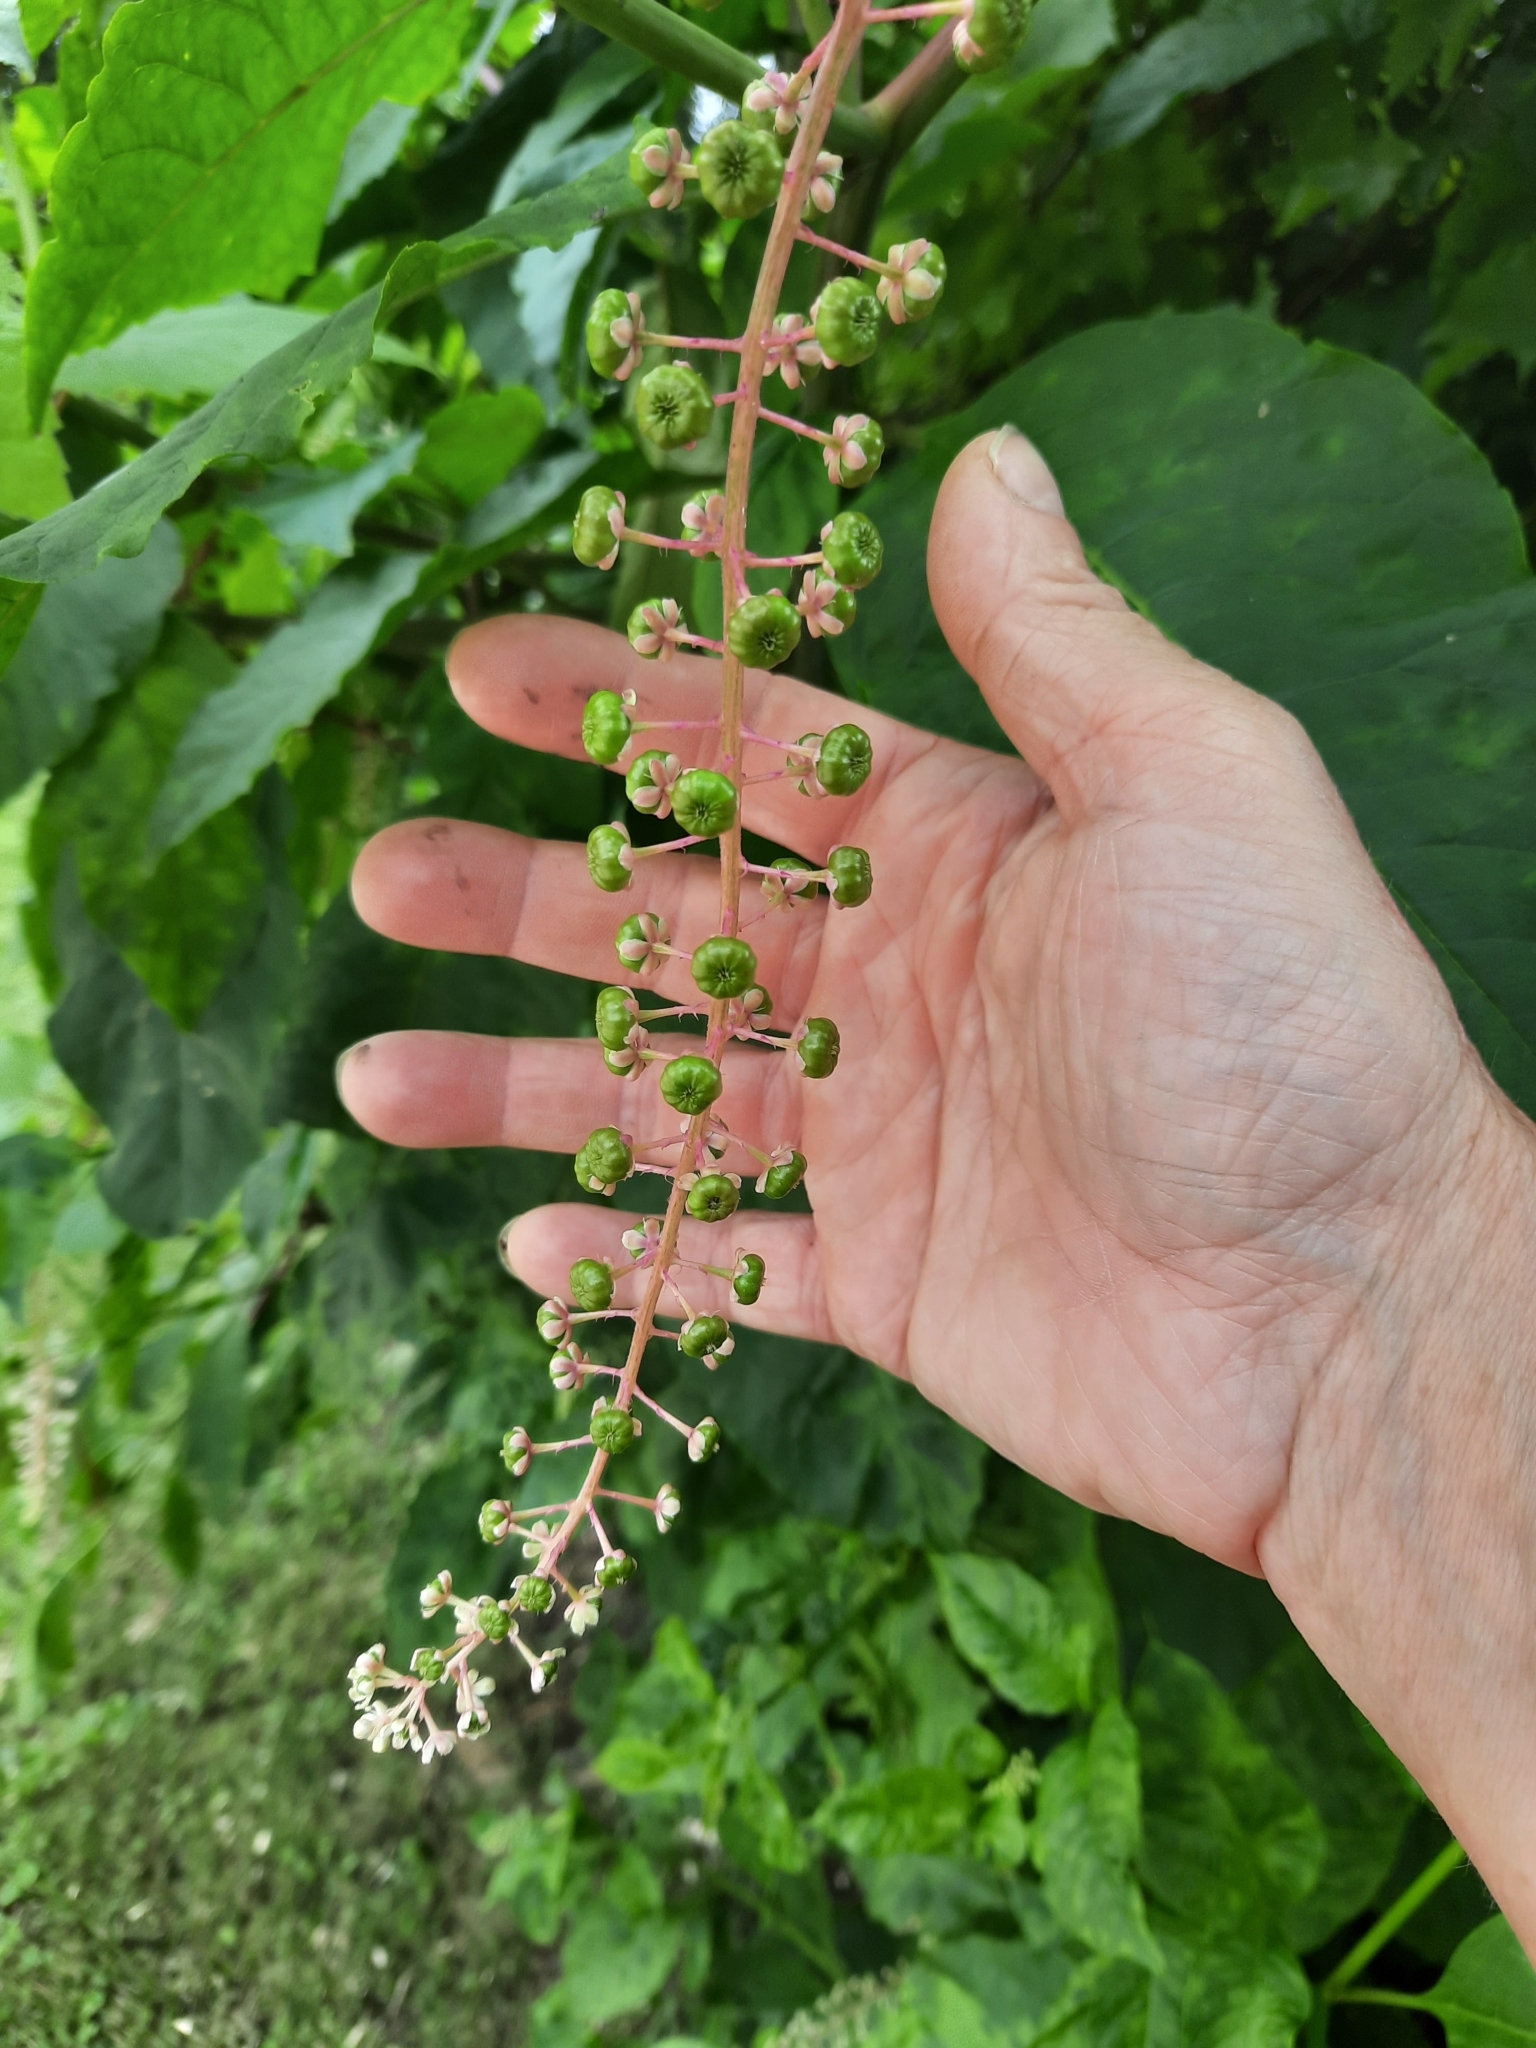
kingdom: Plantae
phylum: Tracheophyta
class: Magnoliopsida
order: Caryophyllales
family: Phytolaccaceae
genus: Phytolacca
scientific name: Phytolacca americana
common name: American pokeweed
